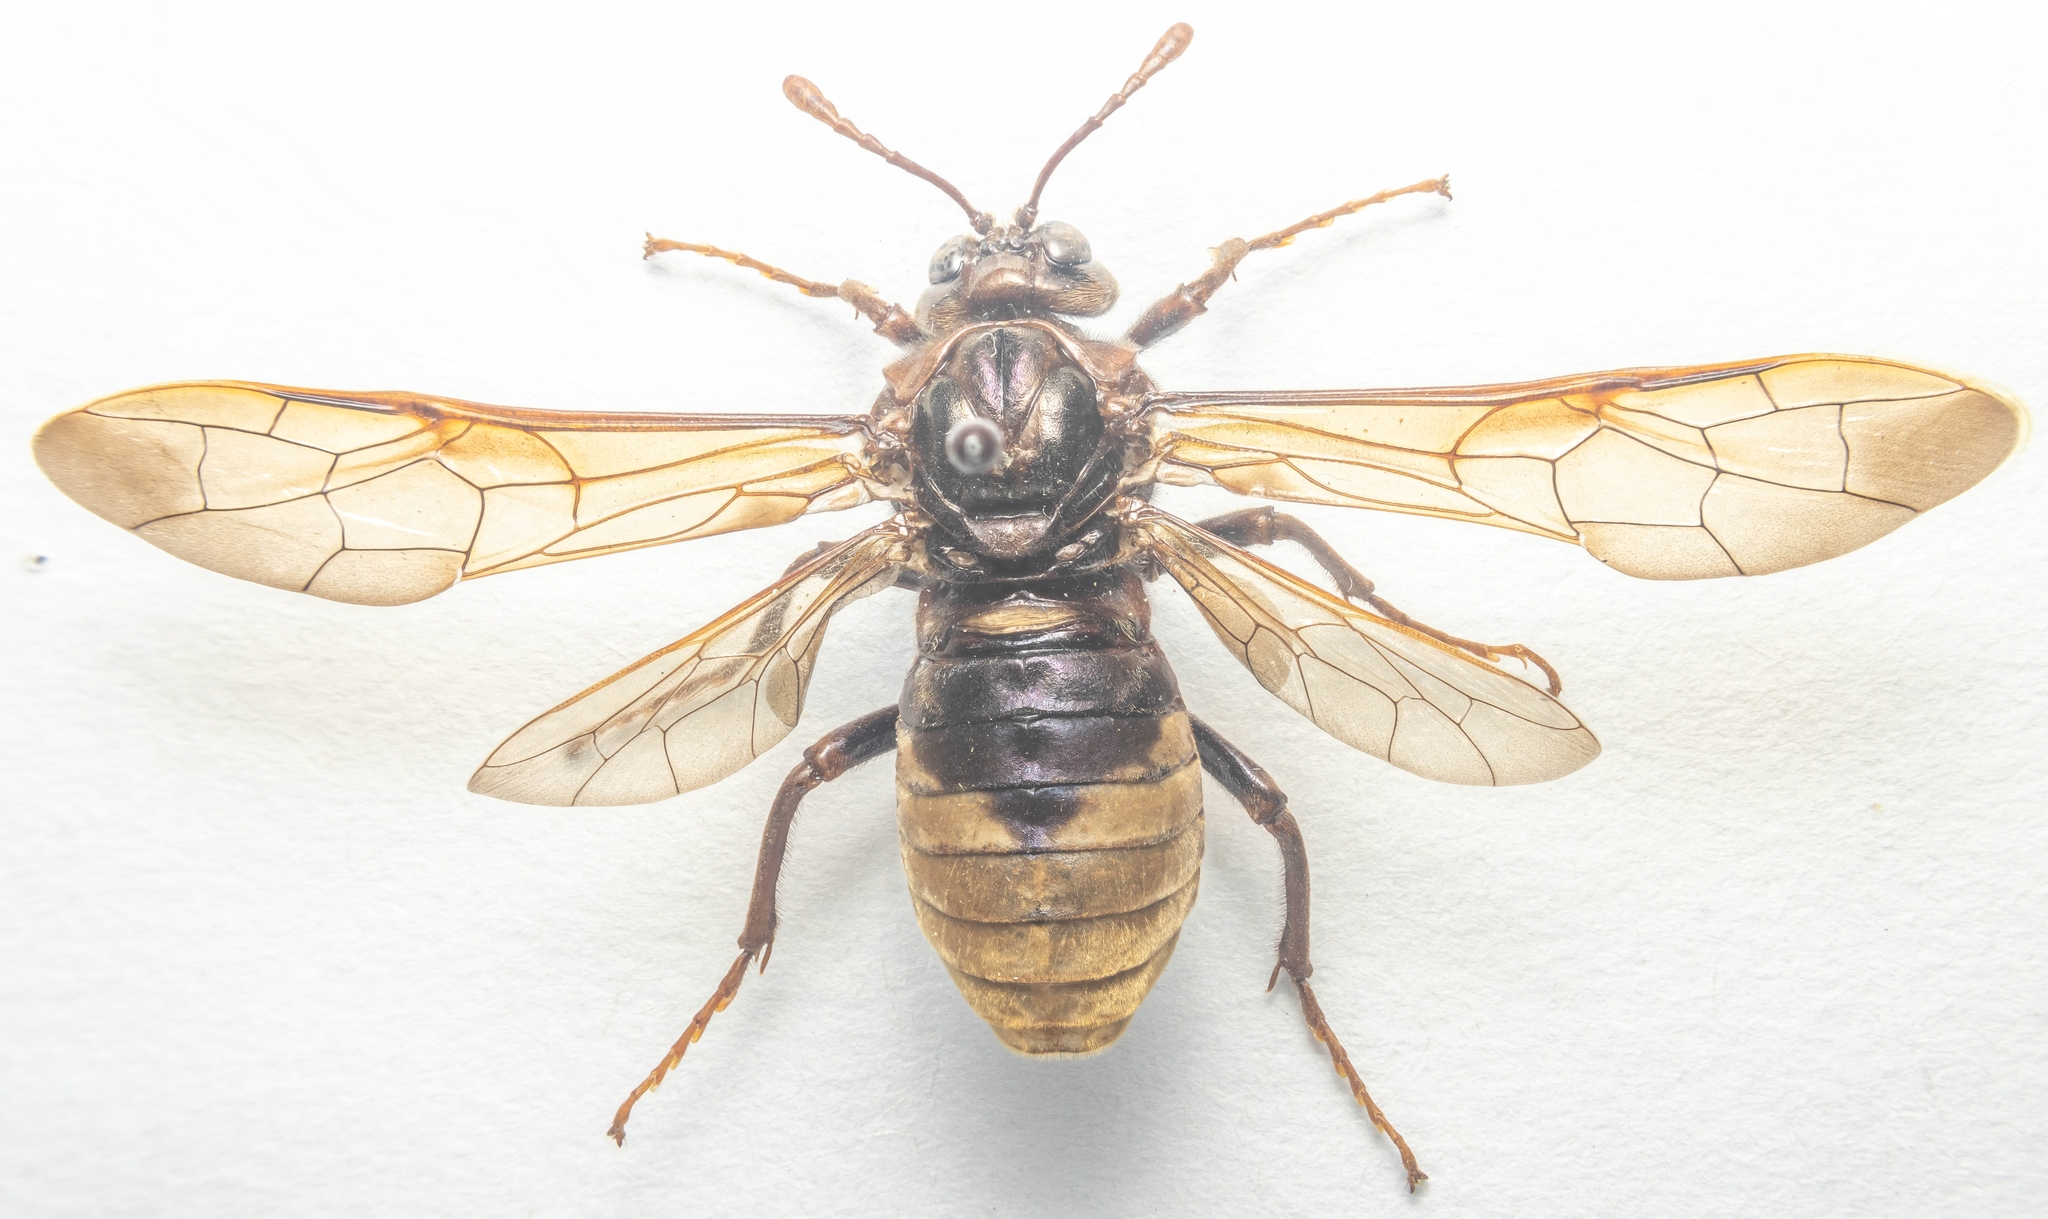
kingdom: Animalia
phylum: Arthropoda
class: Insecta
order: Hymenoptera
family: Cimbicidae
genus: Cimbex
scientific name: Cimbex connatus
